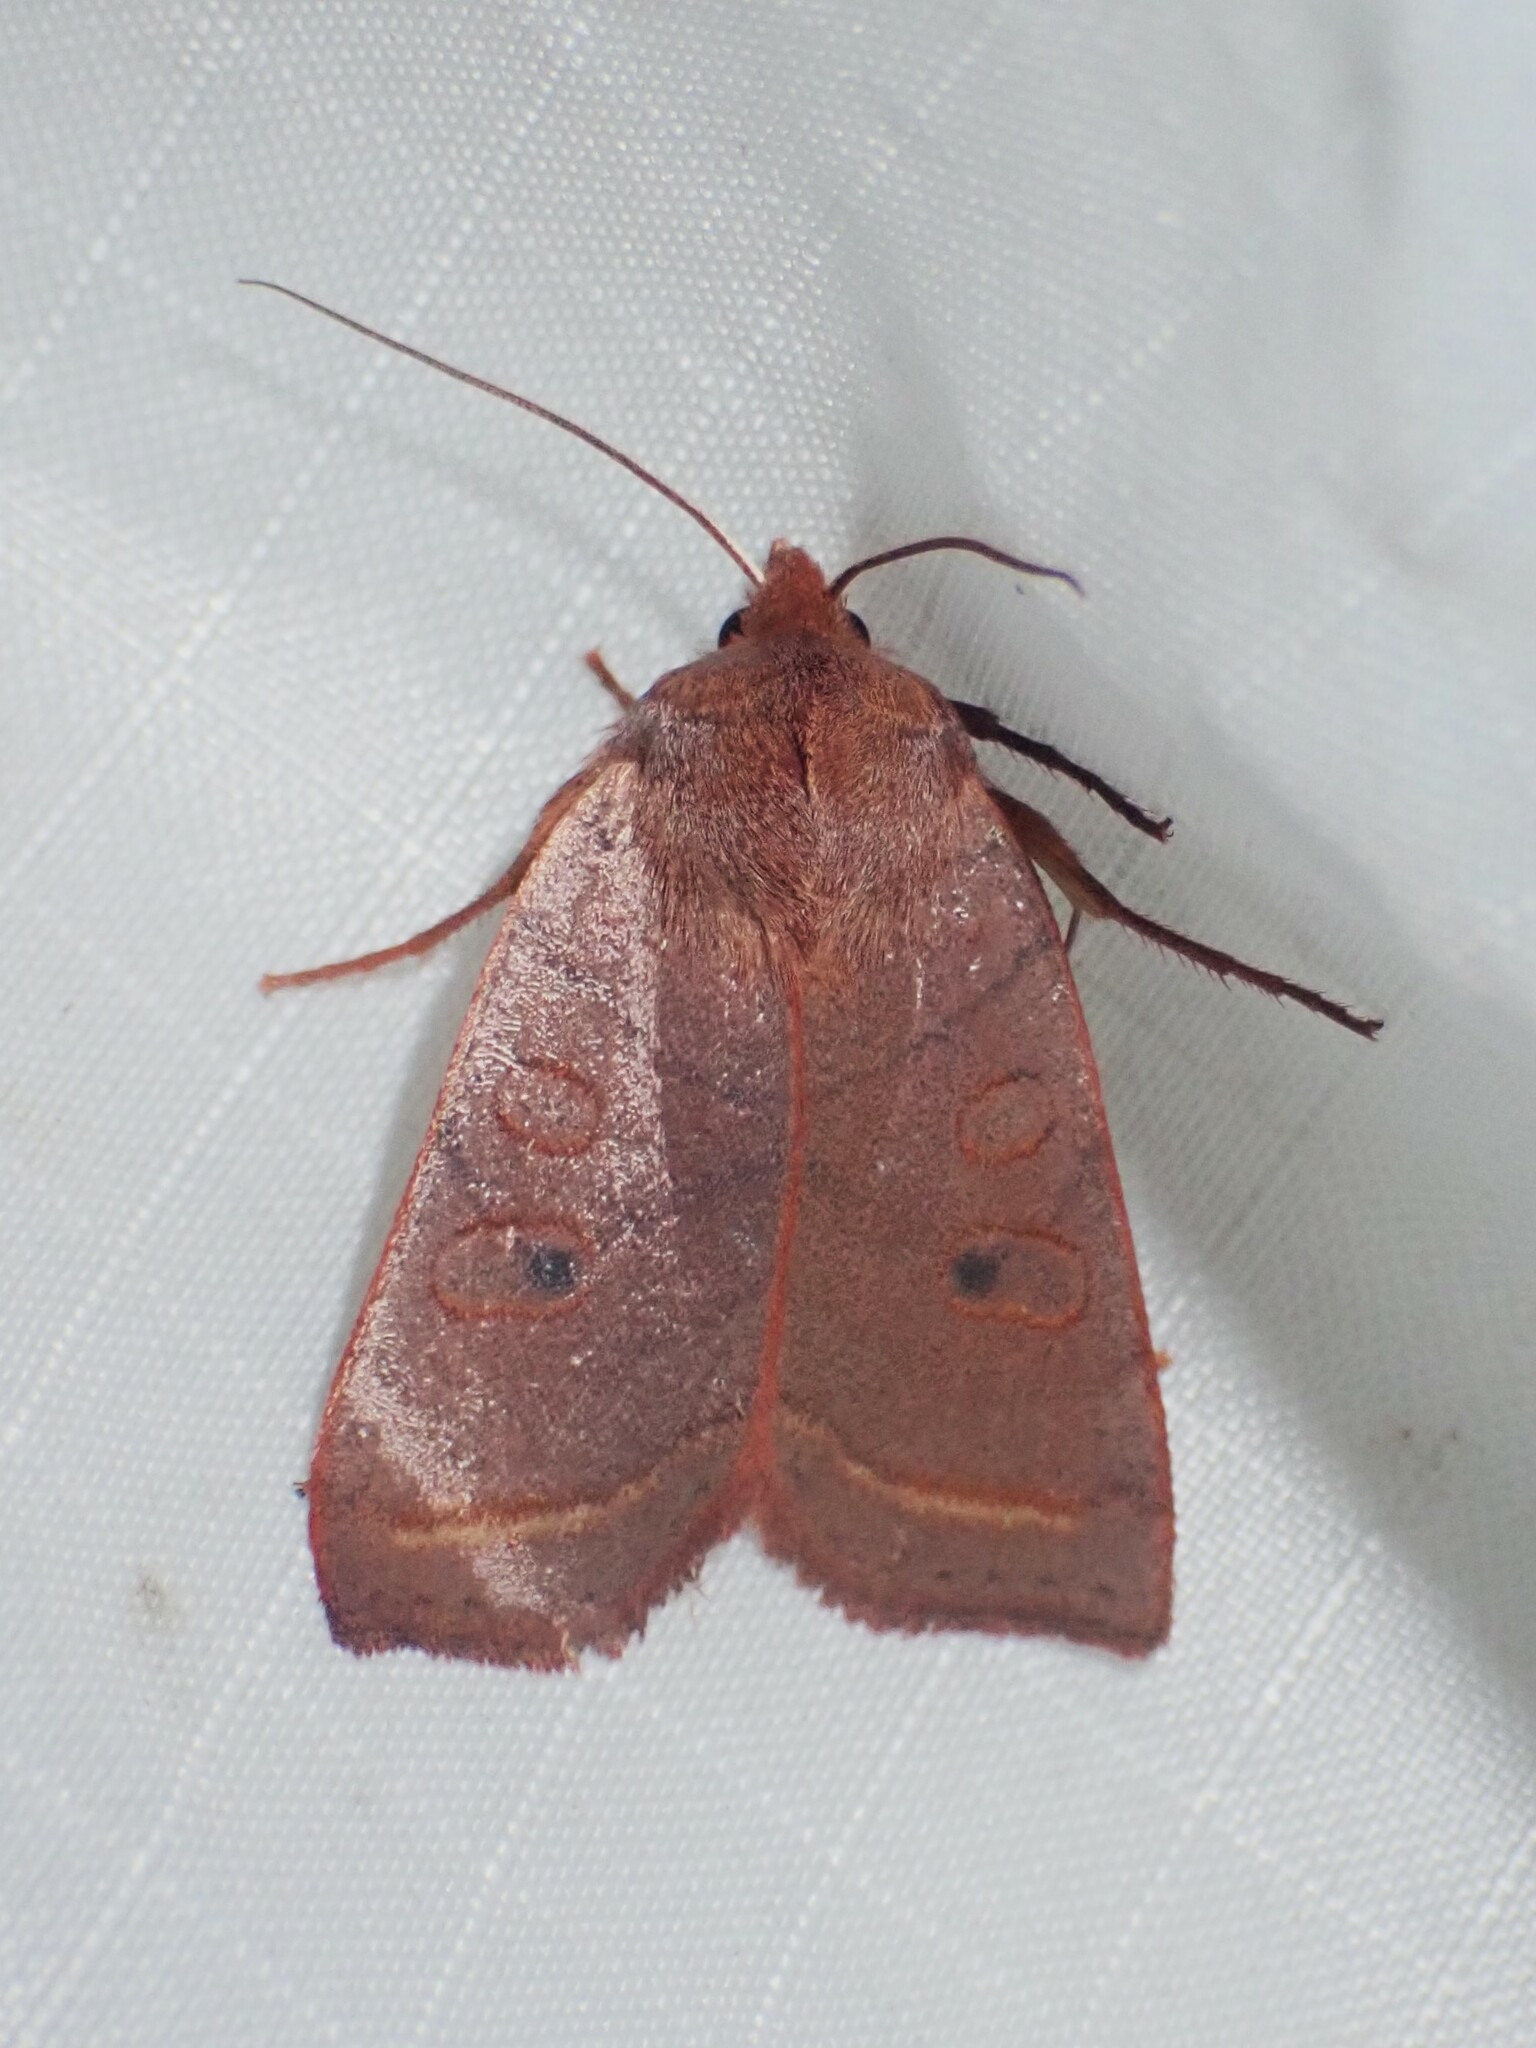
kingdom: Animalia
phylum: Arthropoda
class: Insecta
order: Lepidoptera
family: Noctuidae
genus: Epiglaea
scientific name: Epiglaea apiata
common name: Pointed sallow
